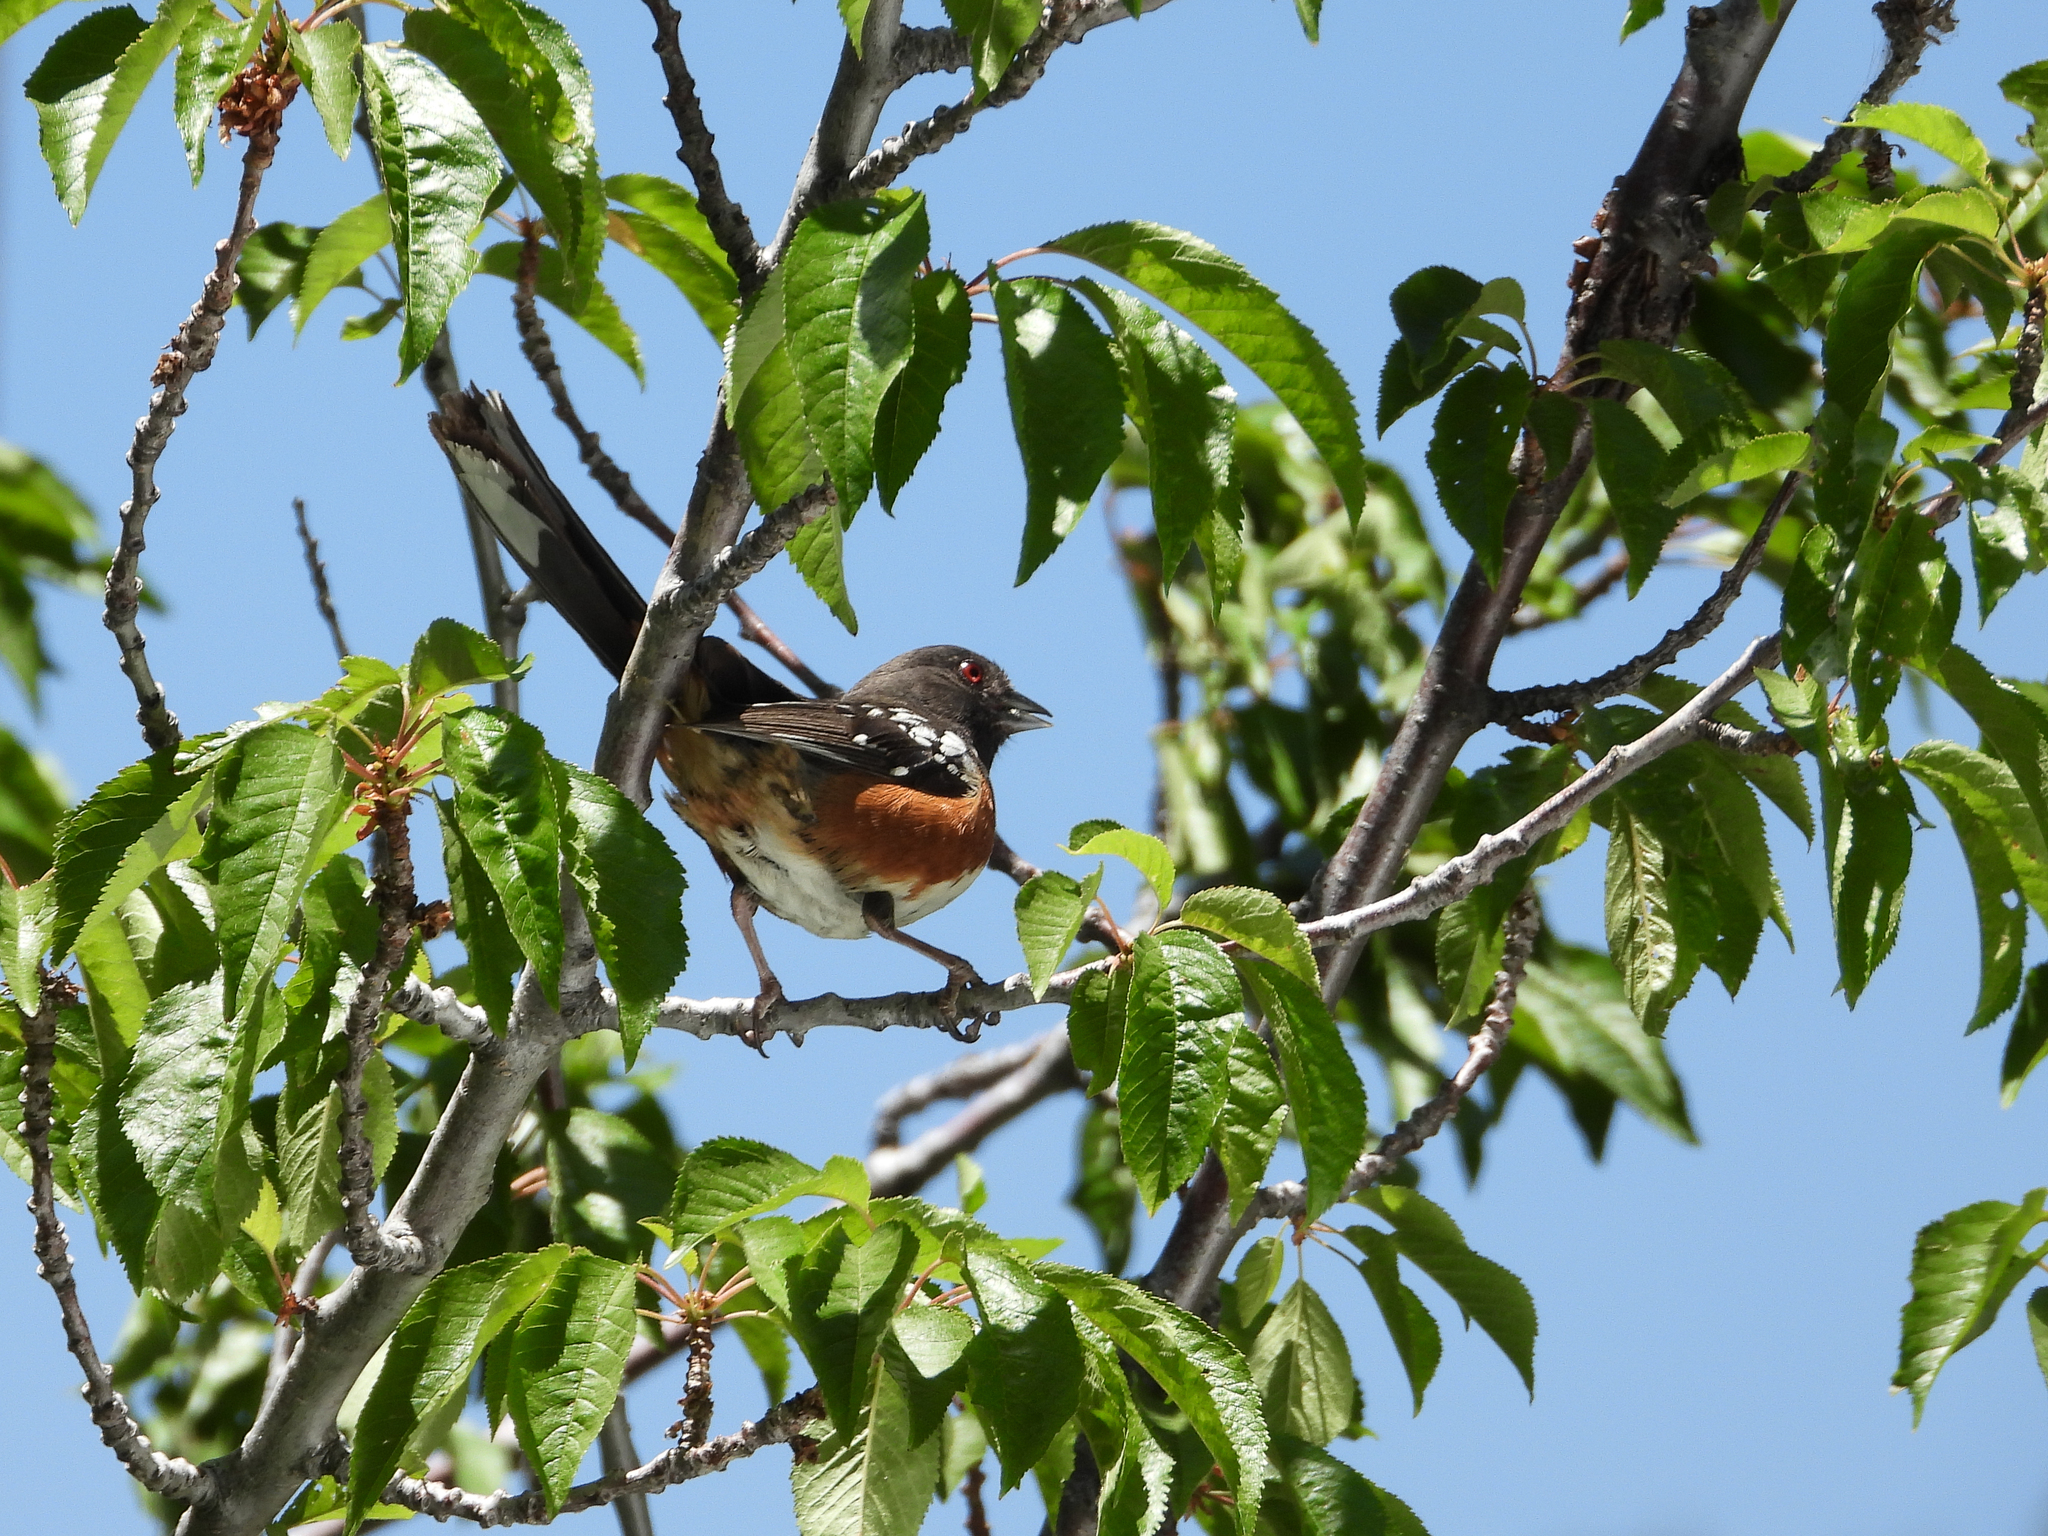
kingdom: Animalia
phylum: Chordata
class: Aves
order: Passeriformes
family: Passerellidae
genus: Pipilo
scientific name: Pipilo maculatus
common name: Spotted towhee
